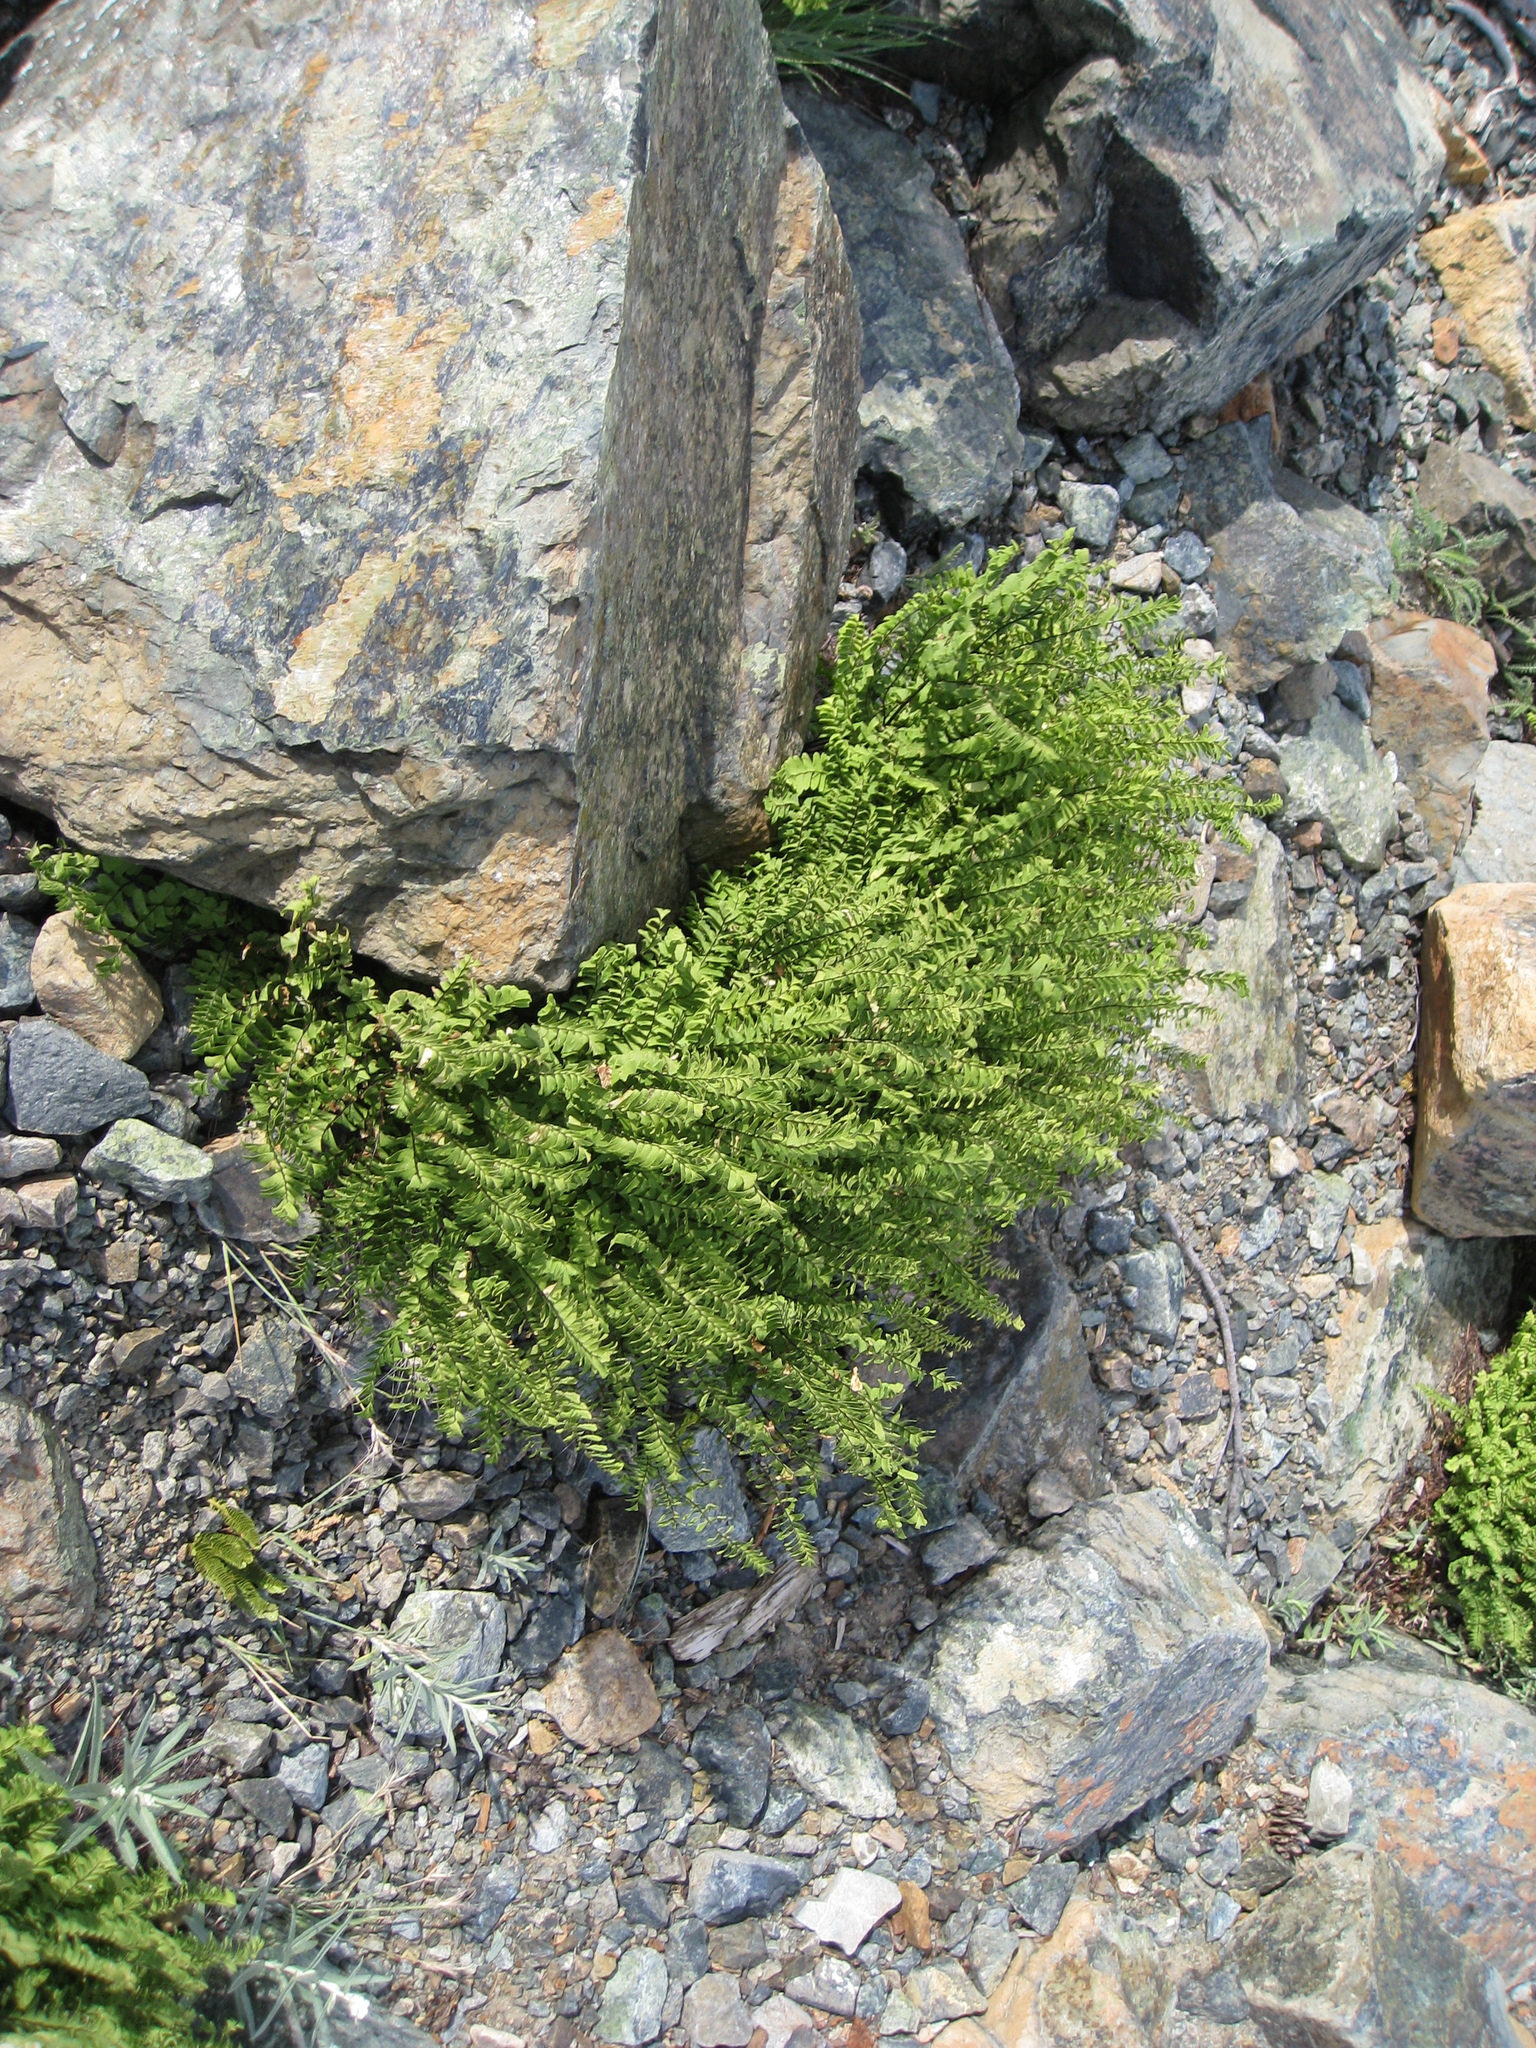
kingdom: Plantae
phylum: Tracheophyta
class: Polypodiopsida
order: Polypodiales
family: Pteridaceae
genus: Adiantum
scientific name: Adiantum aleuticum
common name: Aleutian maidenhair fern
